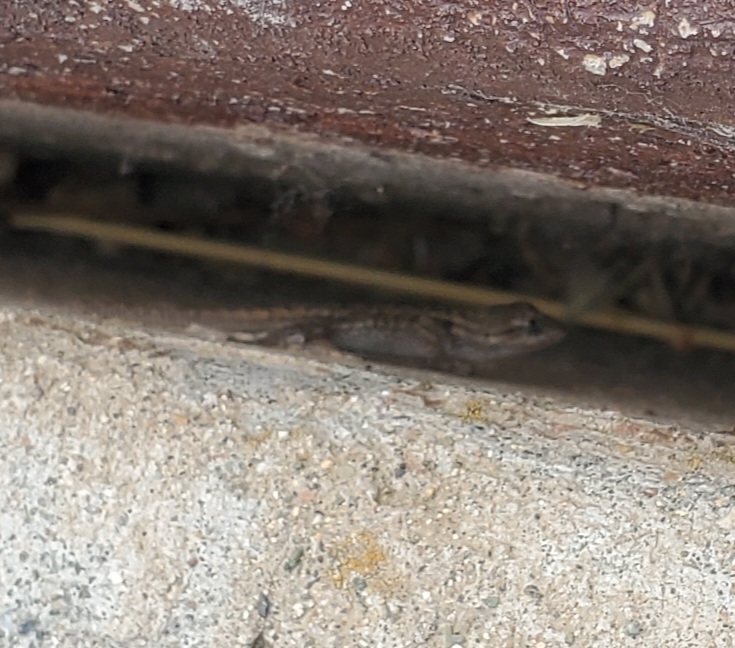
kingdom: Animalia
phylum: Chordata
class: Squamata
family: Phrynosomatidae
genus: Sceloporus
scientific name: Sceloporus occidentalis
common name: Western fence lizard
